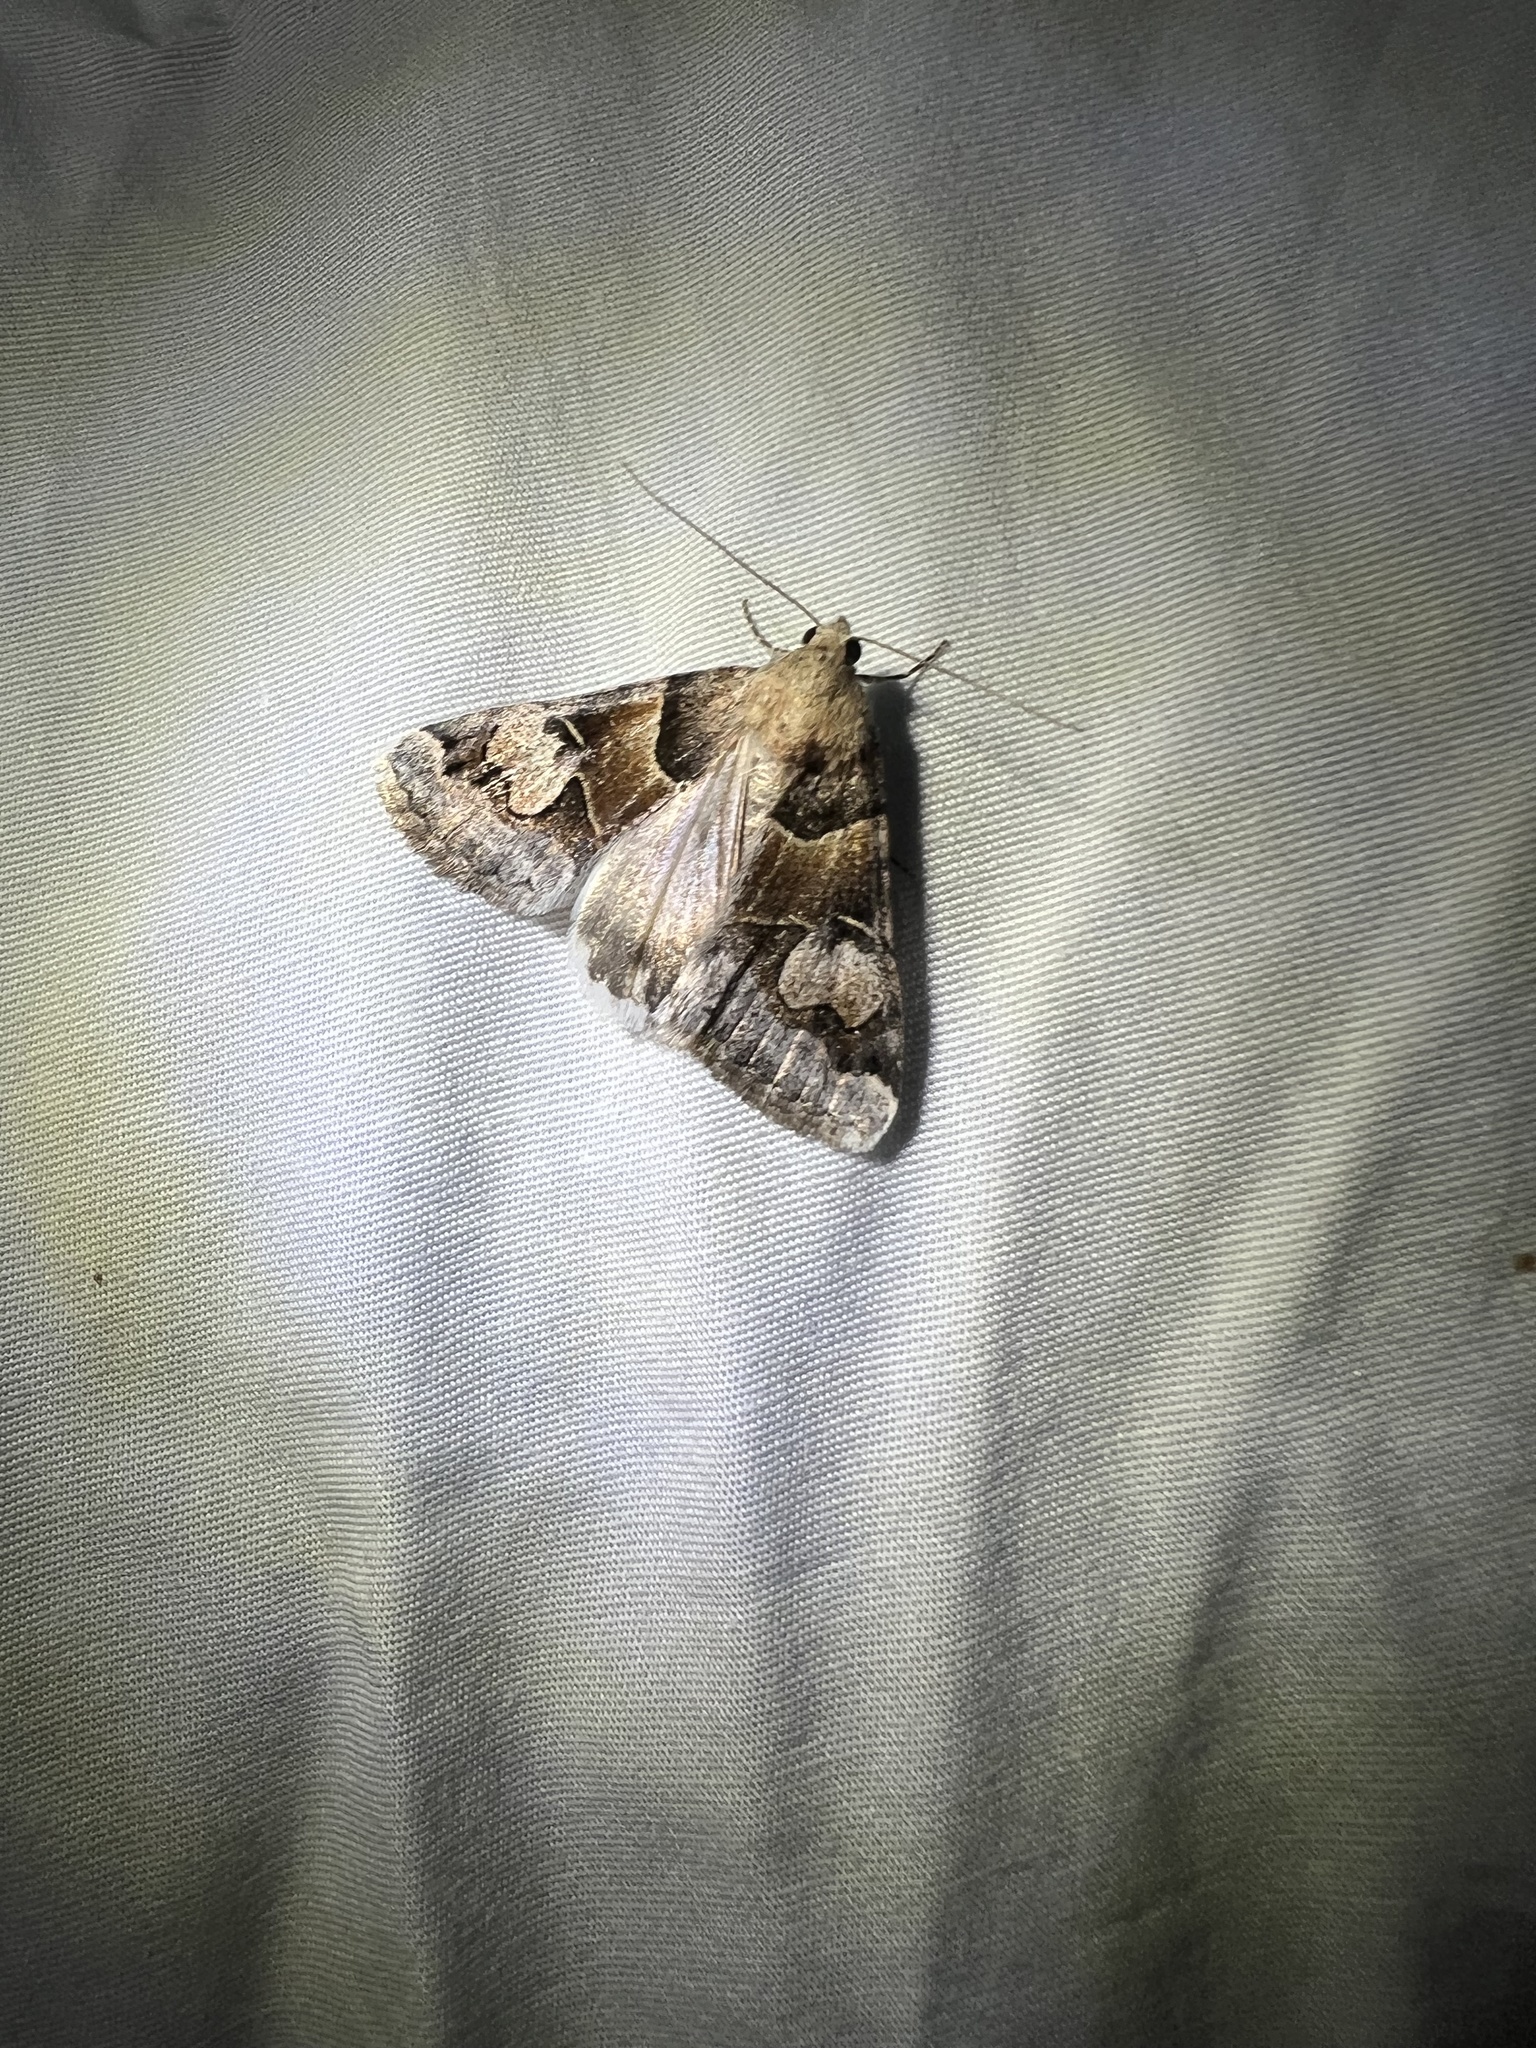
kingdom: Animalia
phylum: Arthropoda
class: Insecta
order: Lepidoptera
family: Erebidae
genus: Drasteria
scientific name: Drasteria pallescens
